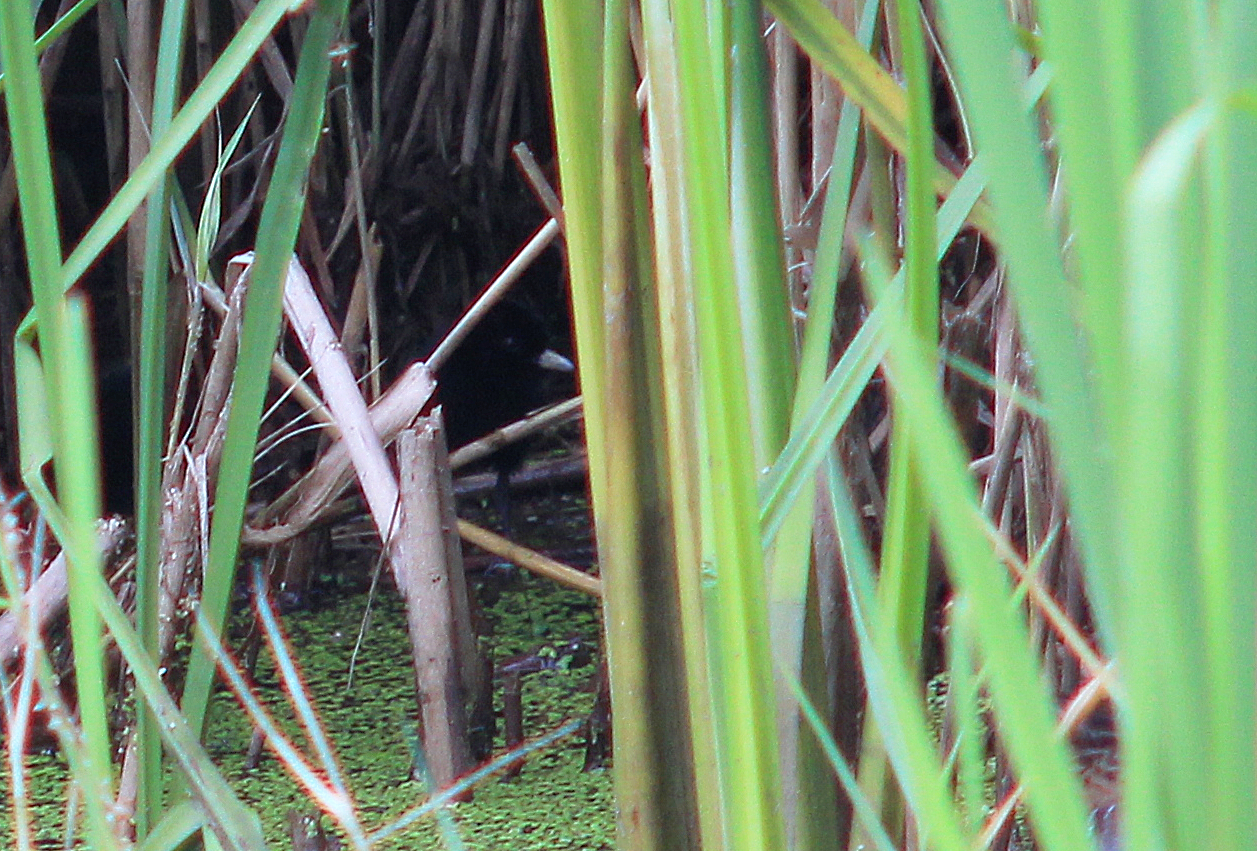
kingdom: Animalia
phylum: Chordata
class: Aves
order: Gruiformes
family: Rallidae
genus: Rallus
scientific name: Rallus aquaticus
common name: Water rail
